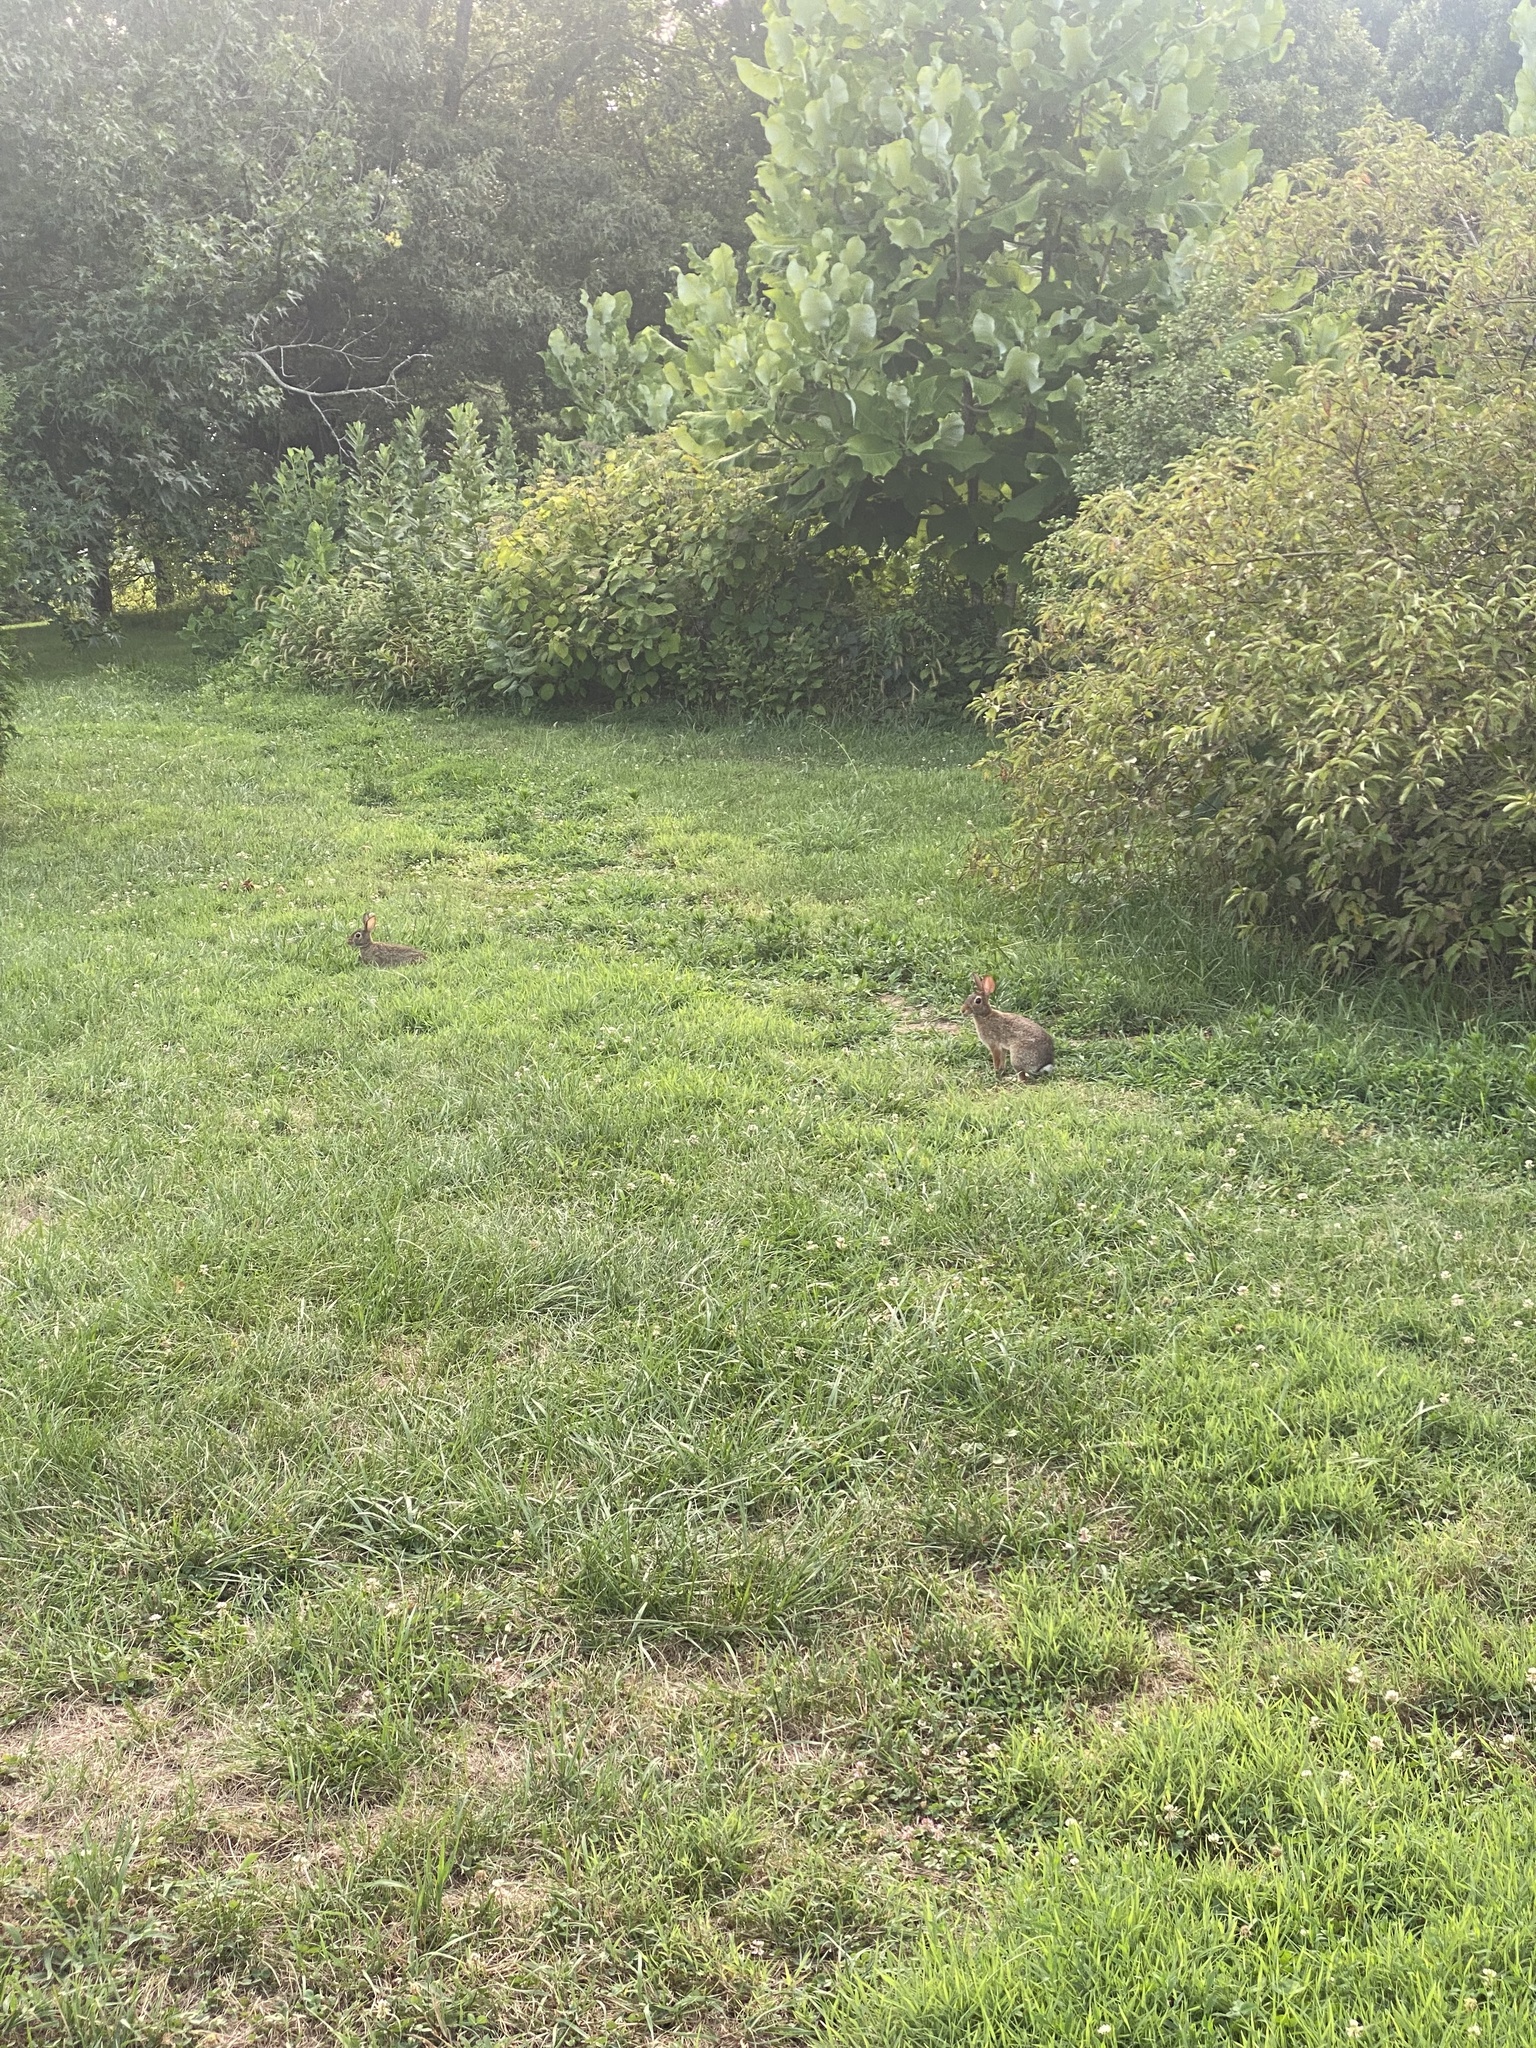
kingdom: Animalia
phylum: Chordata
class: Mammalia
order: Lagomorpha
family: Leporidae
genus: Sylvilagus
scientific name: Sylvilagus floridanus
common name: Eastern cottontail
